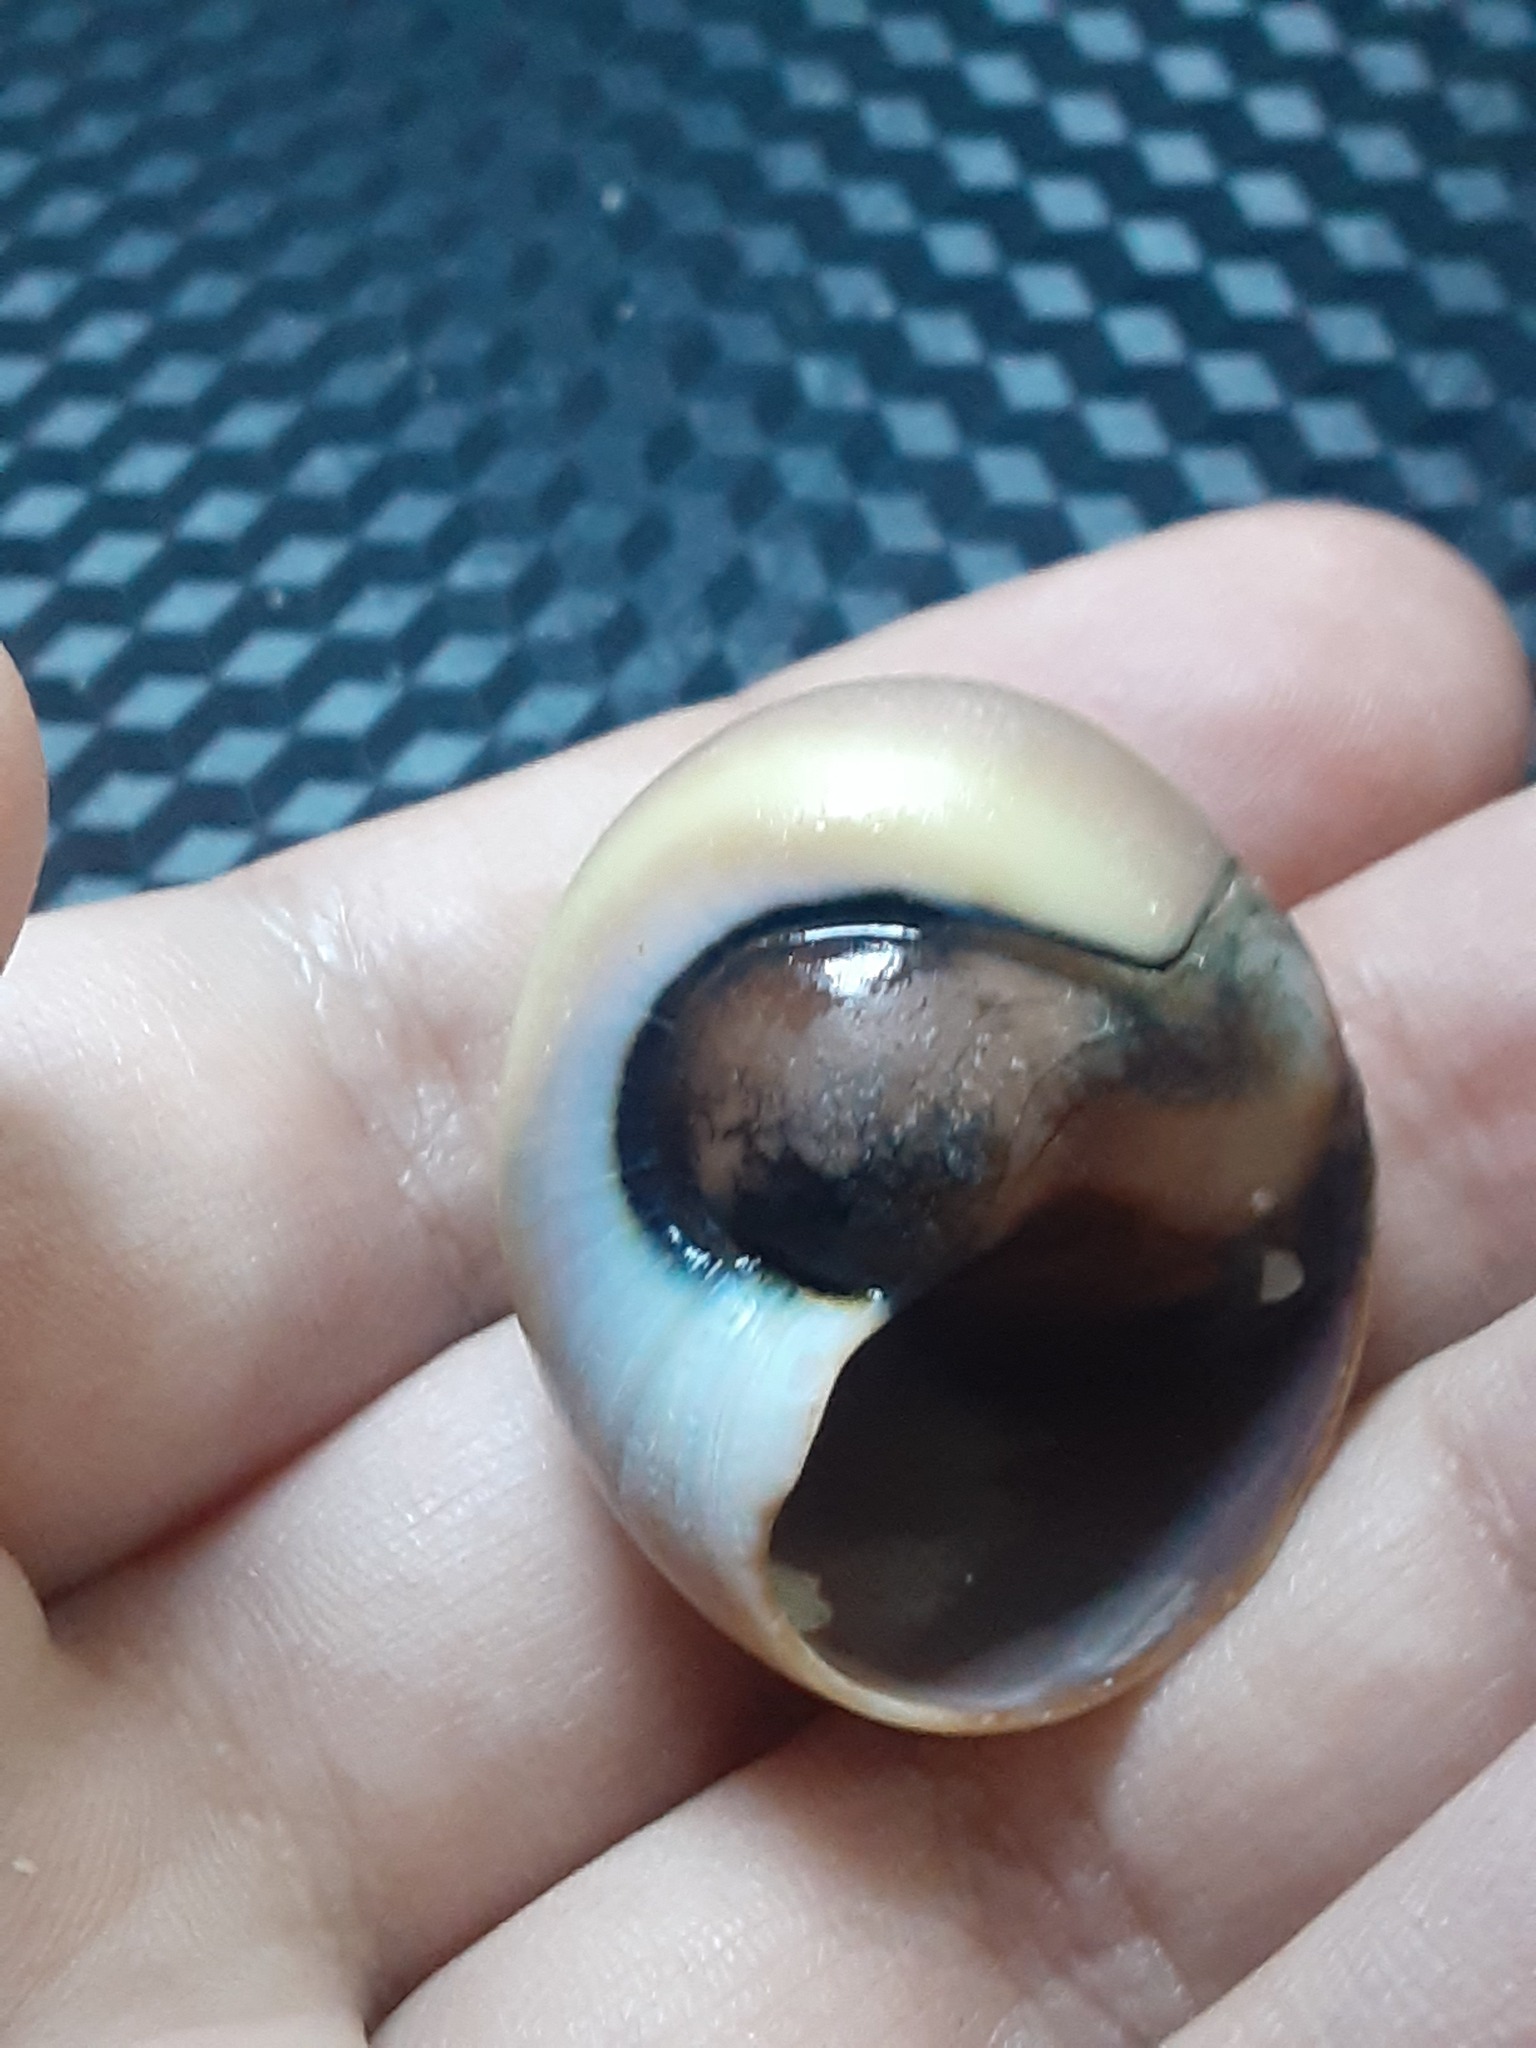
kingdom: Animalia
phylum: Mollusca
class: Gastropoda
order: Littorinimorpha
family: Naticidae
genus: Neverita
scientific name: Neverita duplicata
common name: Lobed moonsnail
